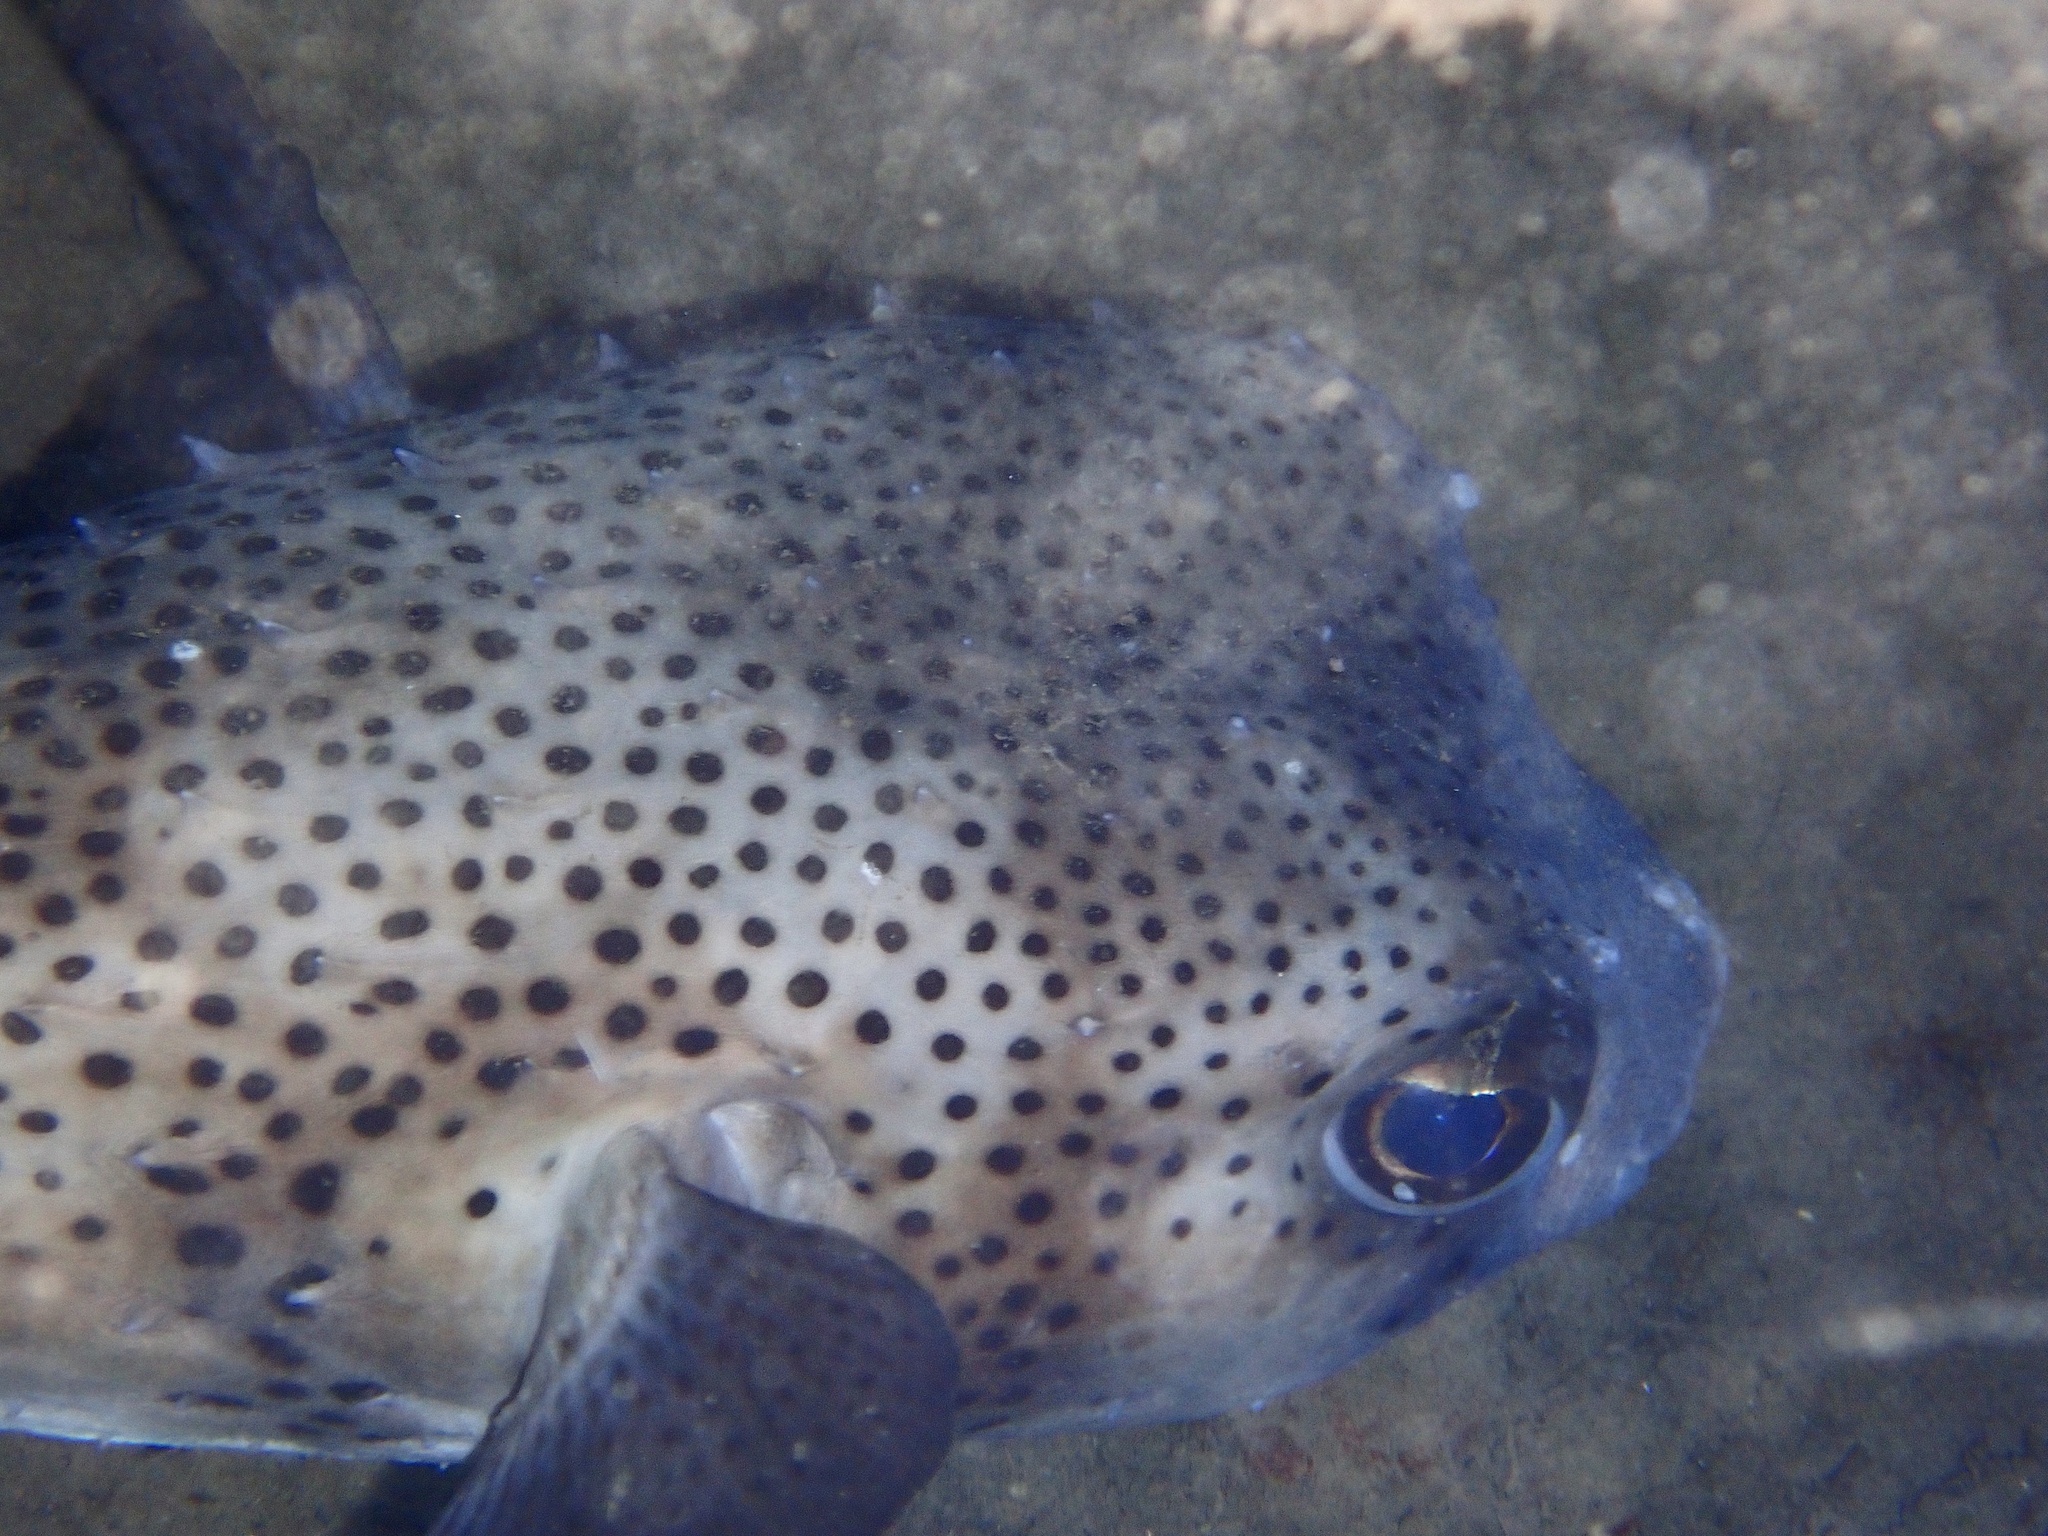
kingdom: Animalia
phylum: Chordata
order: Tetraodontiformes
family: Diodontidae
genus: Chilomycterus
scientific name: Chilomycterus reticulatus
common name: Spotfin burrfish
